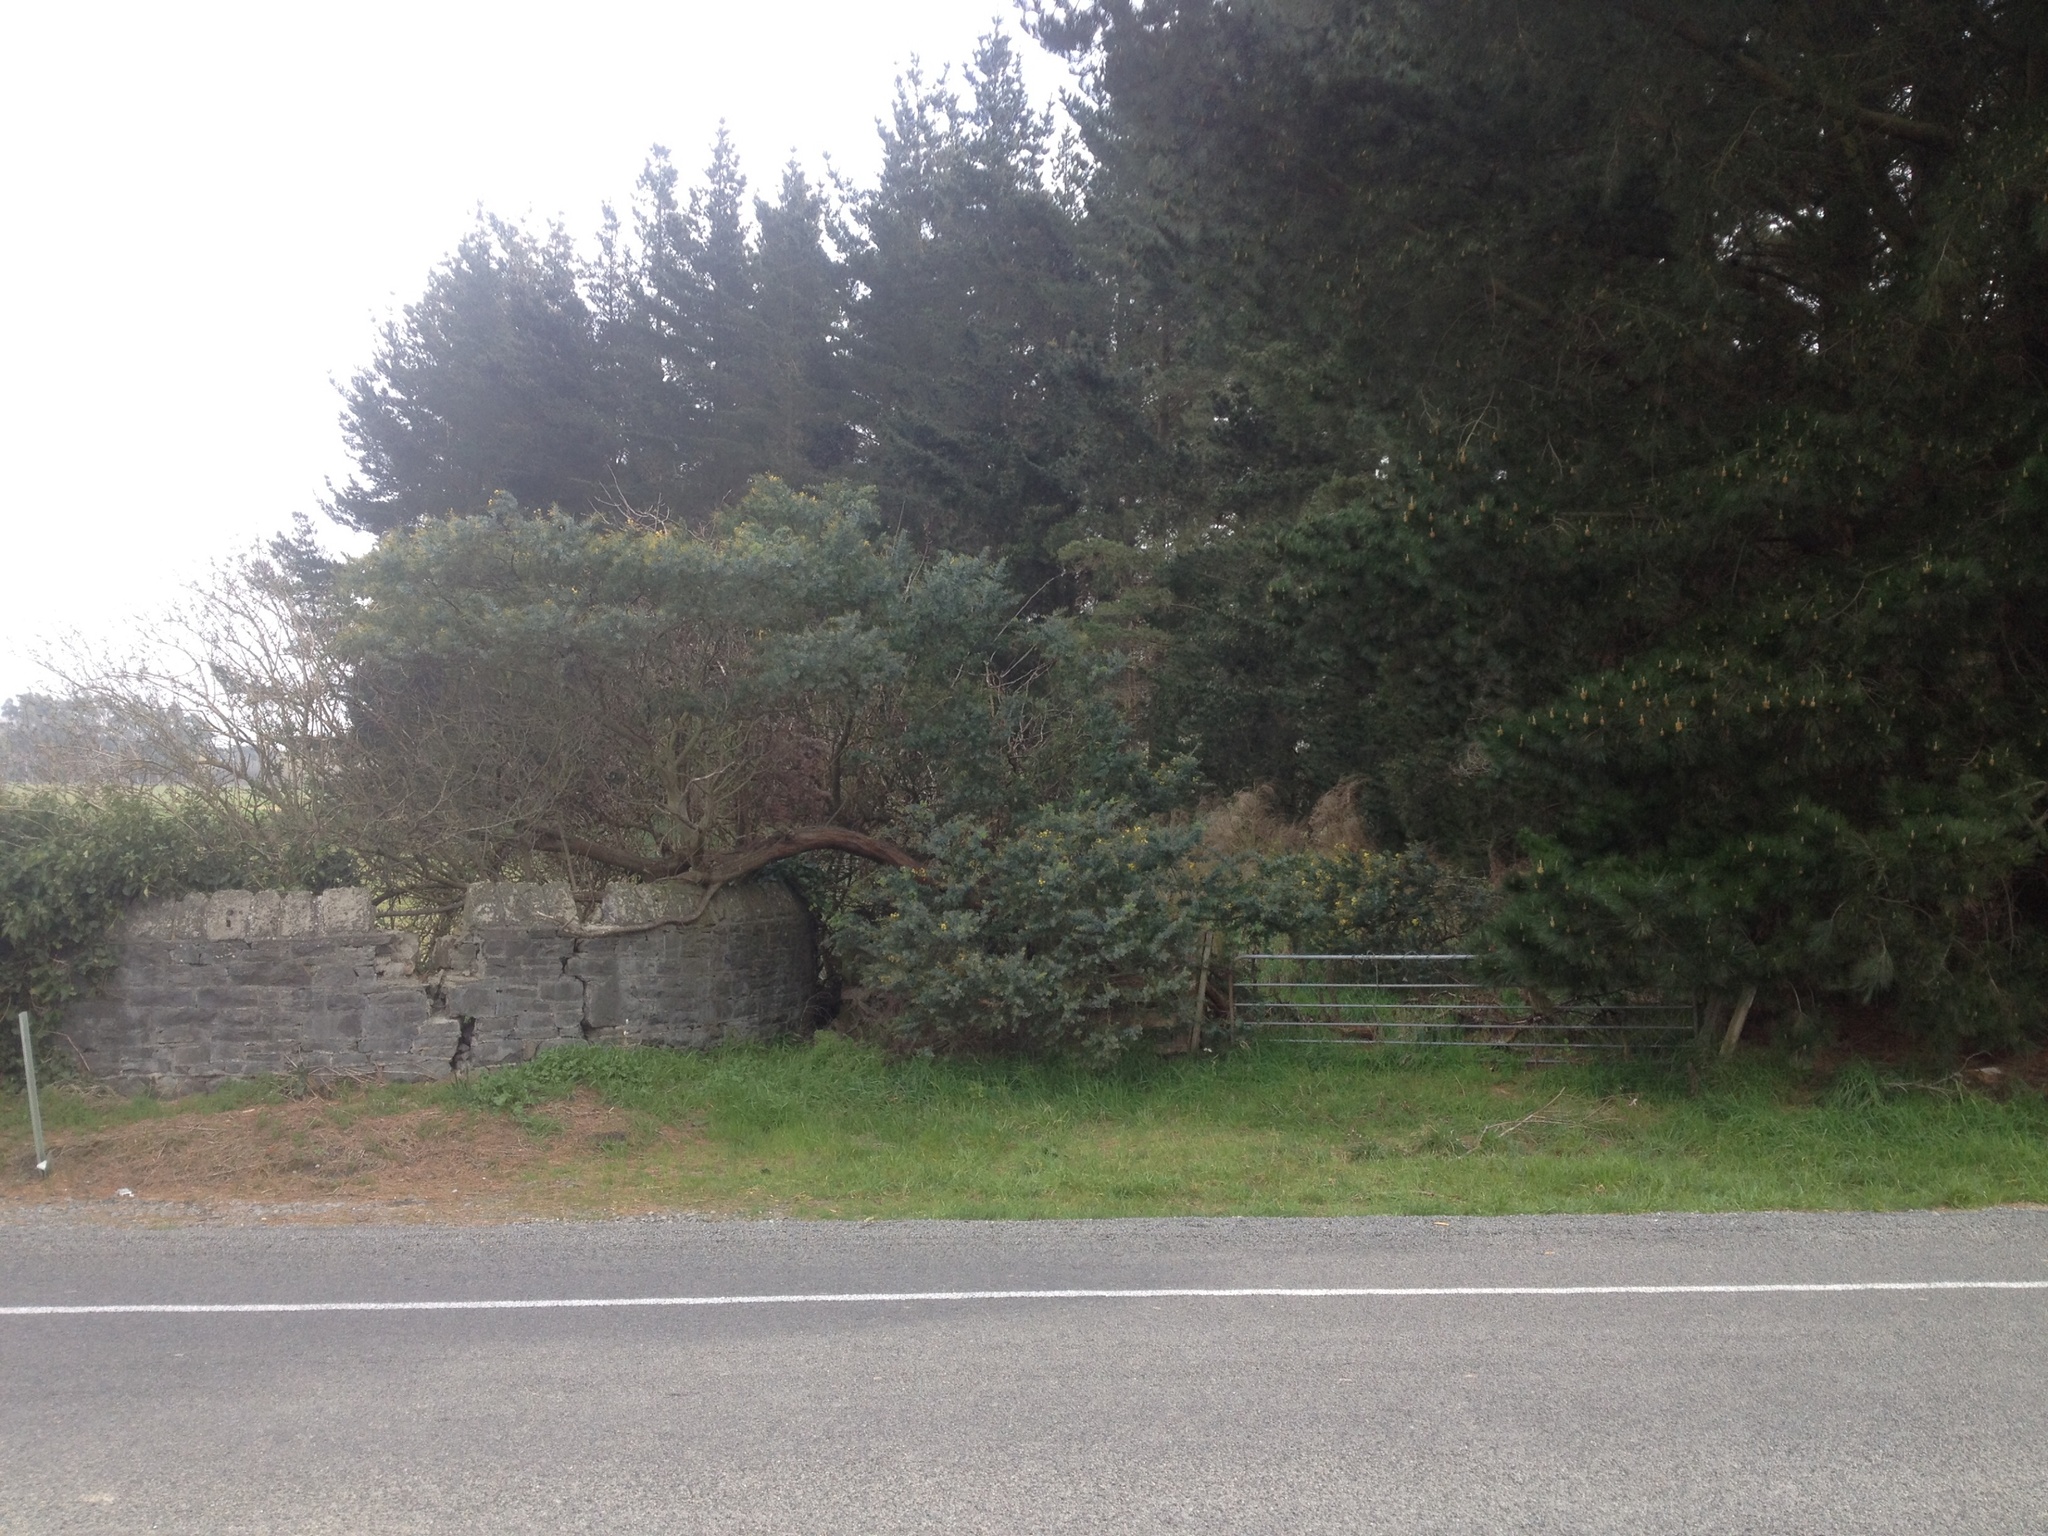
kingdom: Plantae
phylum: Tracheophyta
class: Magnoliopsida
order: Fabales
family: Fabaceae
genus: Acacia
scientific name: Acacia baileyana
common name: Cootamundra wattle
